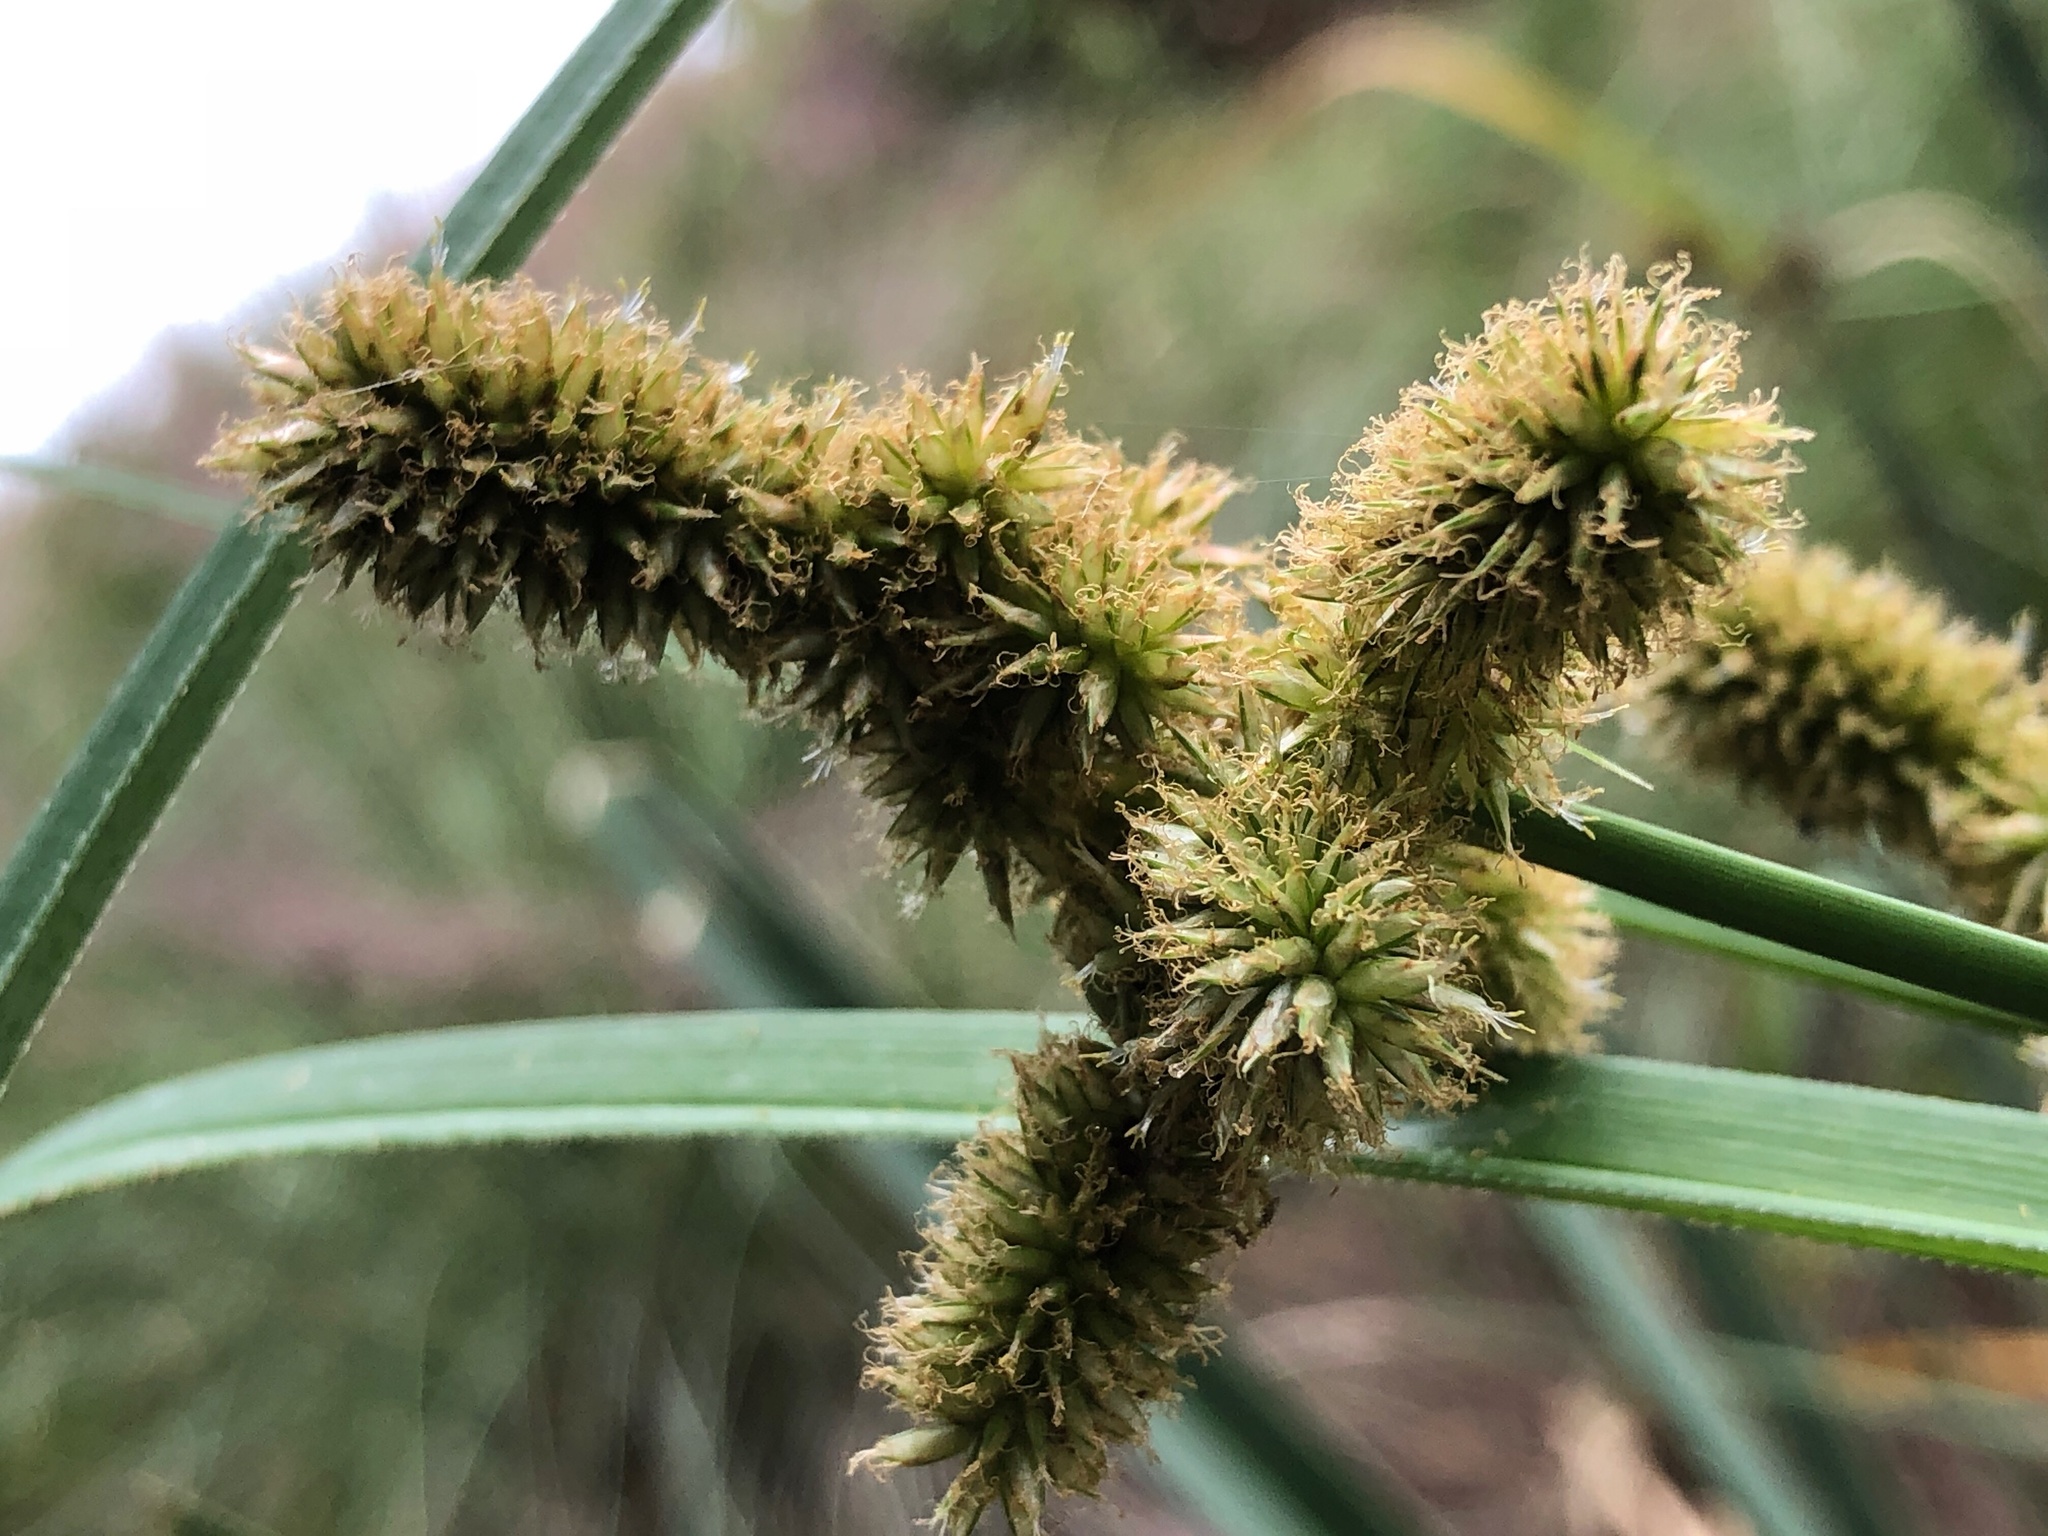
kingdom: Plantae
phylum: Tracheophyta
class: Liliopsida
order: Poales
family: Cyperaceae
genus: Cyperus
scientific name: Cyperus ligularis
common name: Swamp flat sedge
